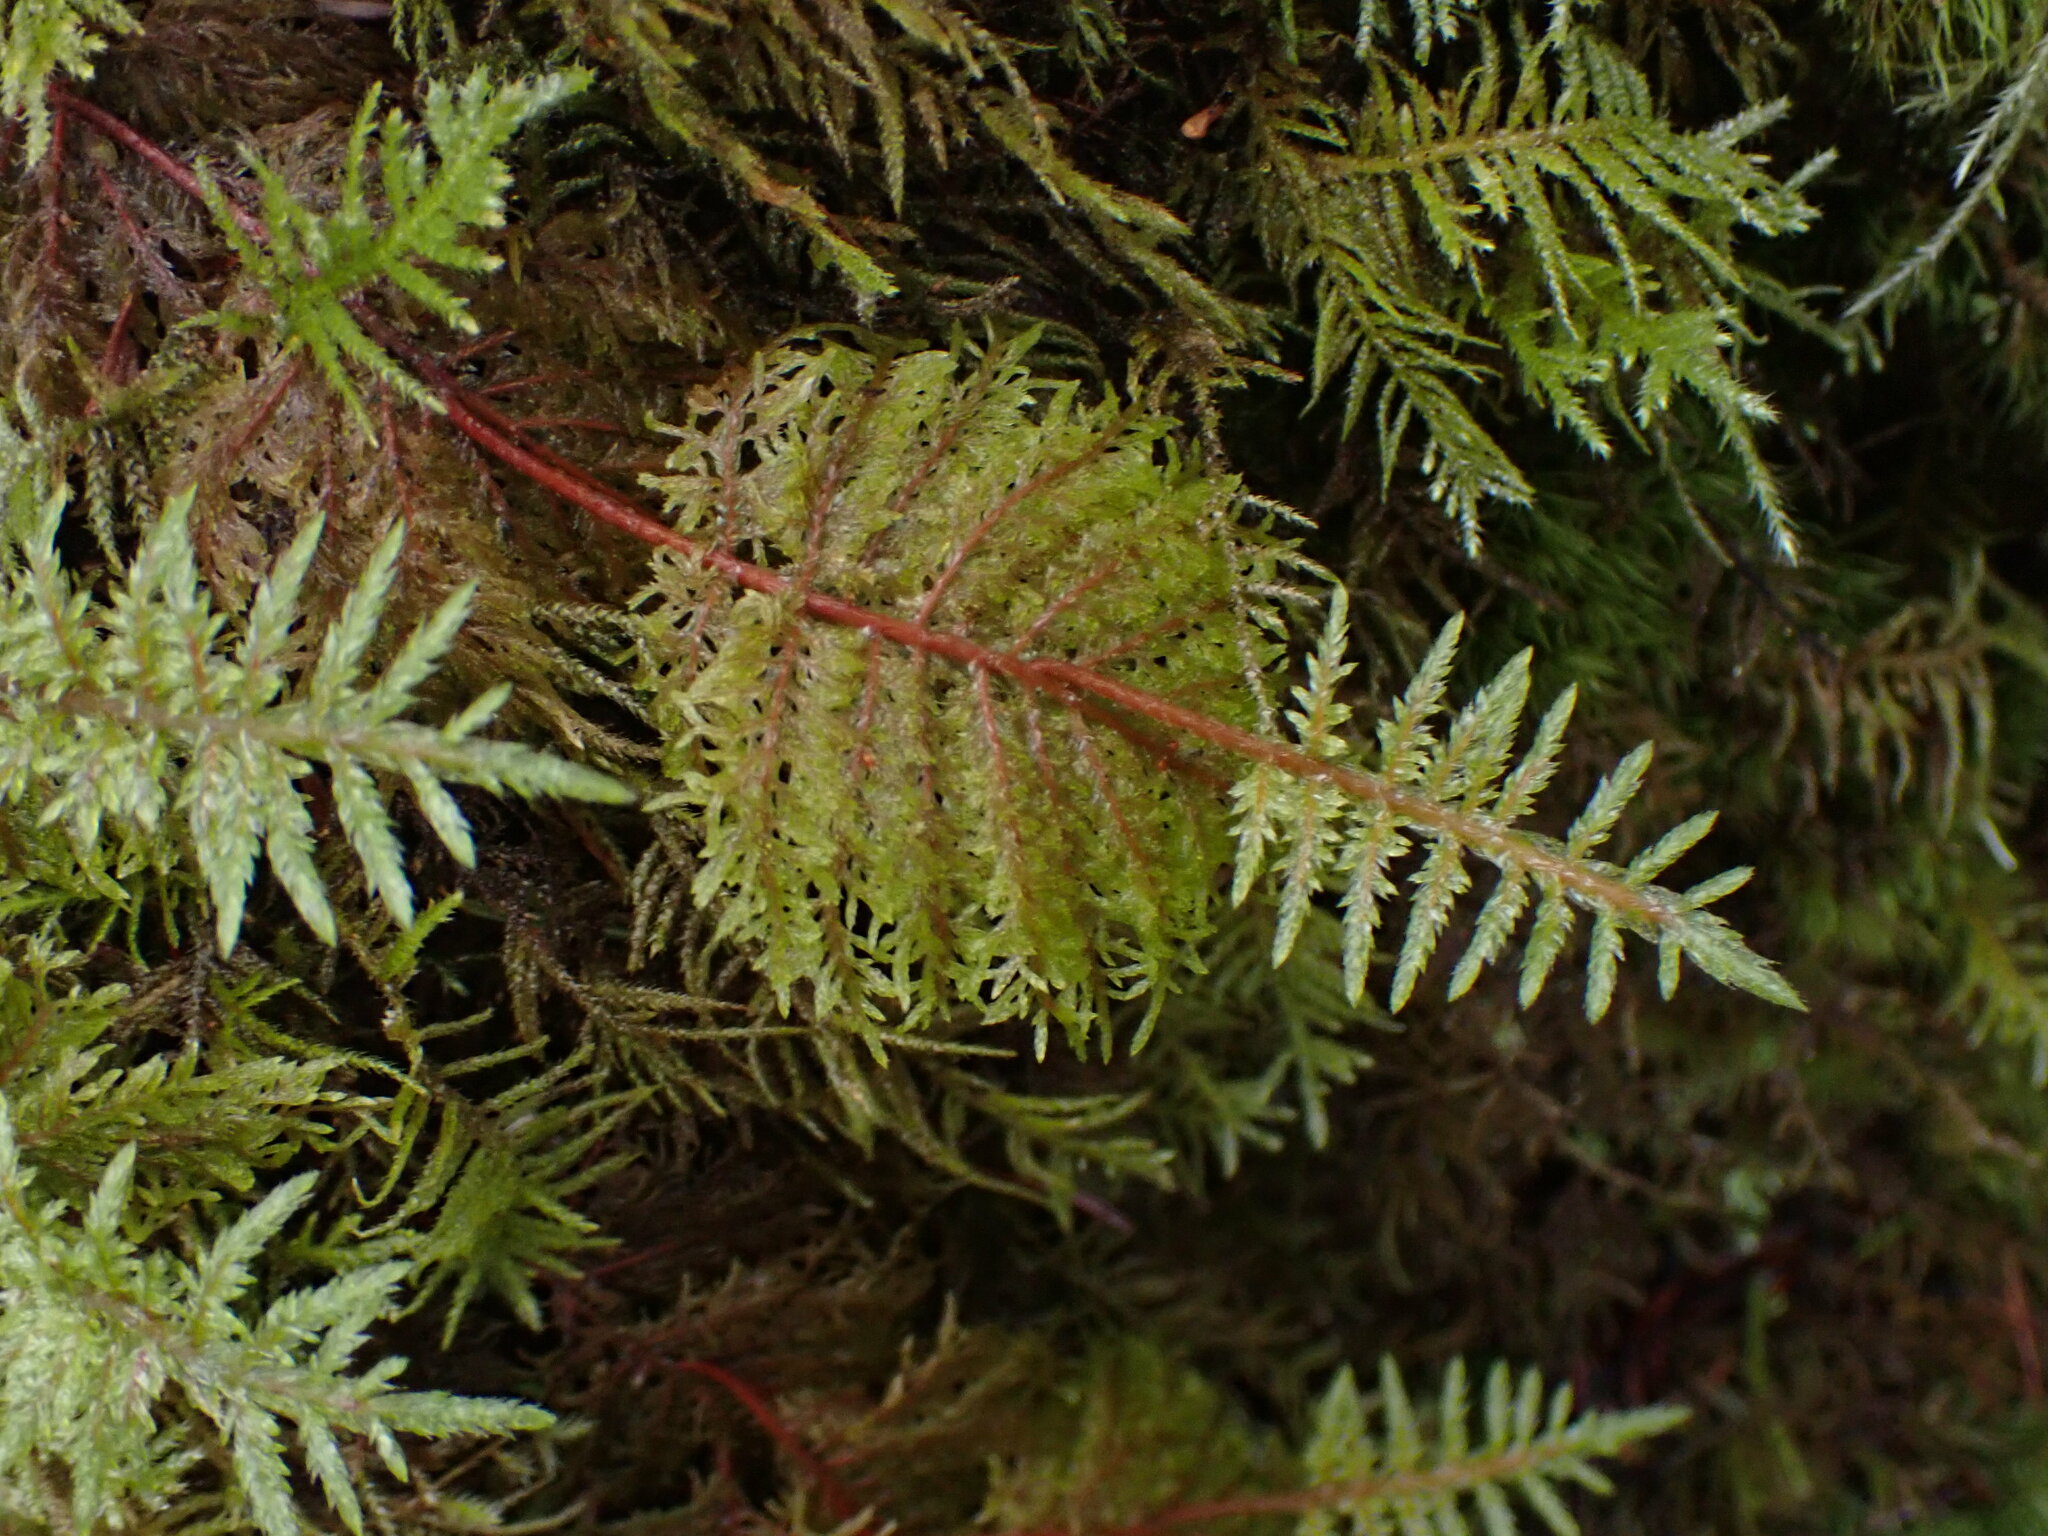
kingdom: Plantae
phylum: Bryophyta
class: Bryopsida
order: Hypnales
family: Hylocomiaceae
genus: Hylocomium
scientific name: Hylocomium splendens
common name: Stairstep moss
